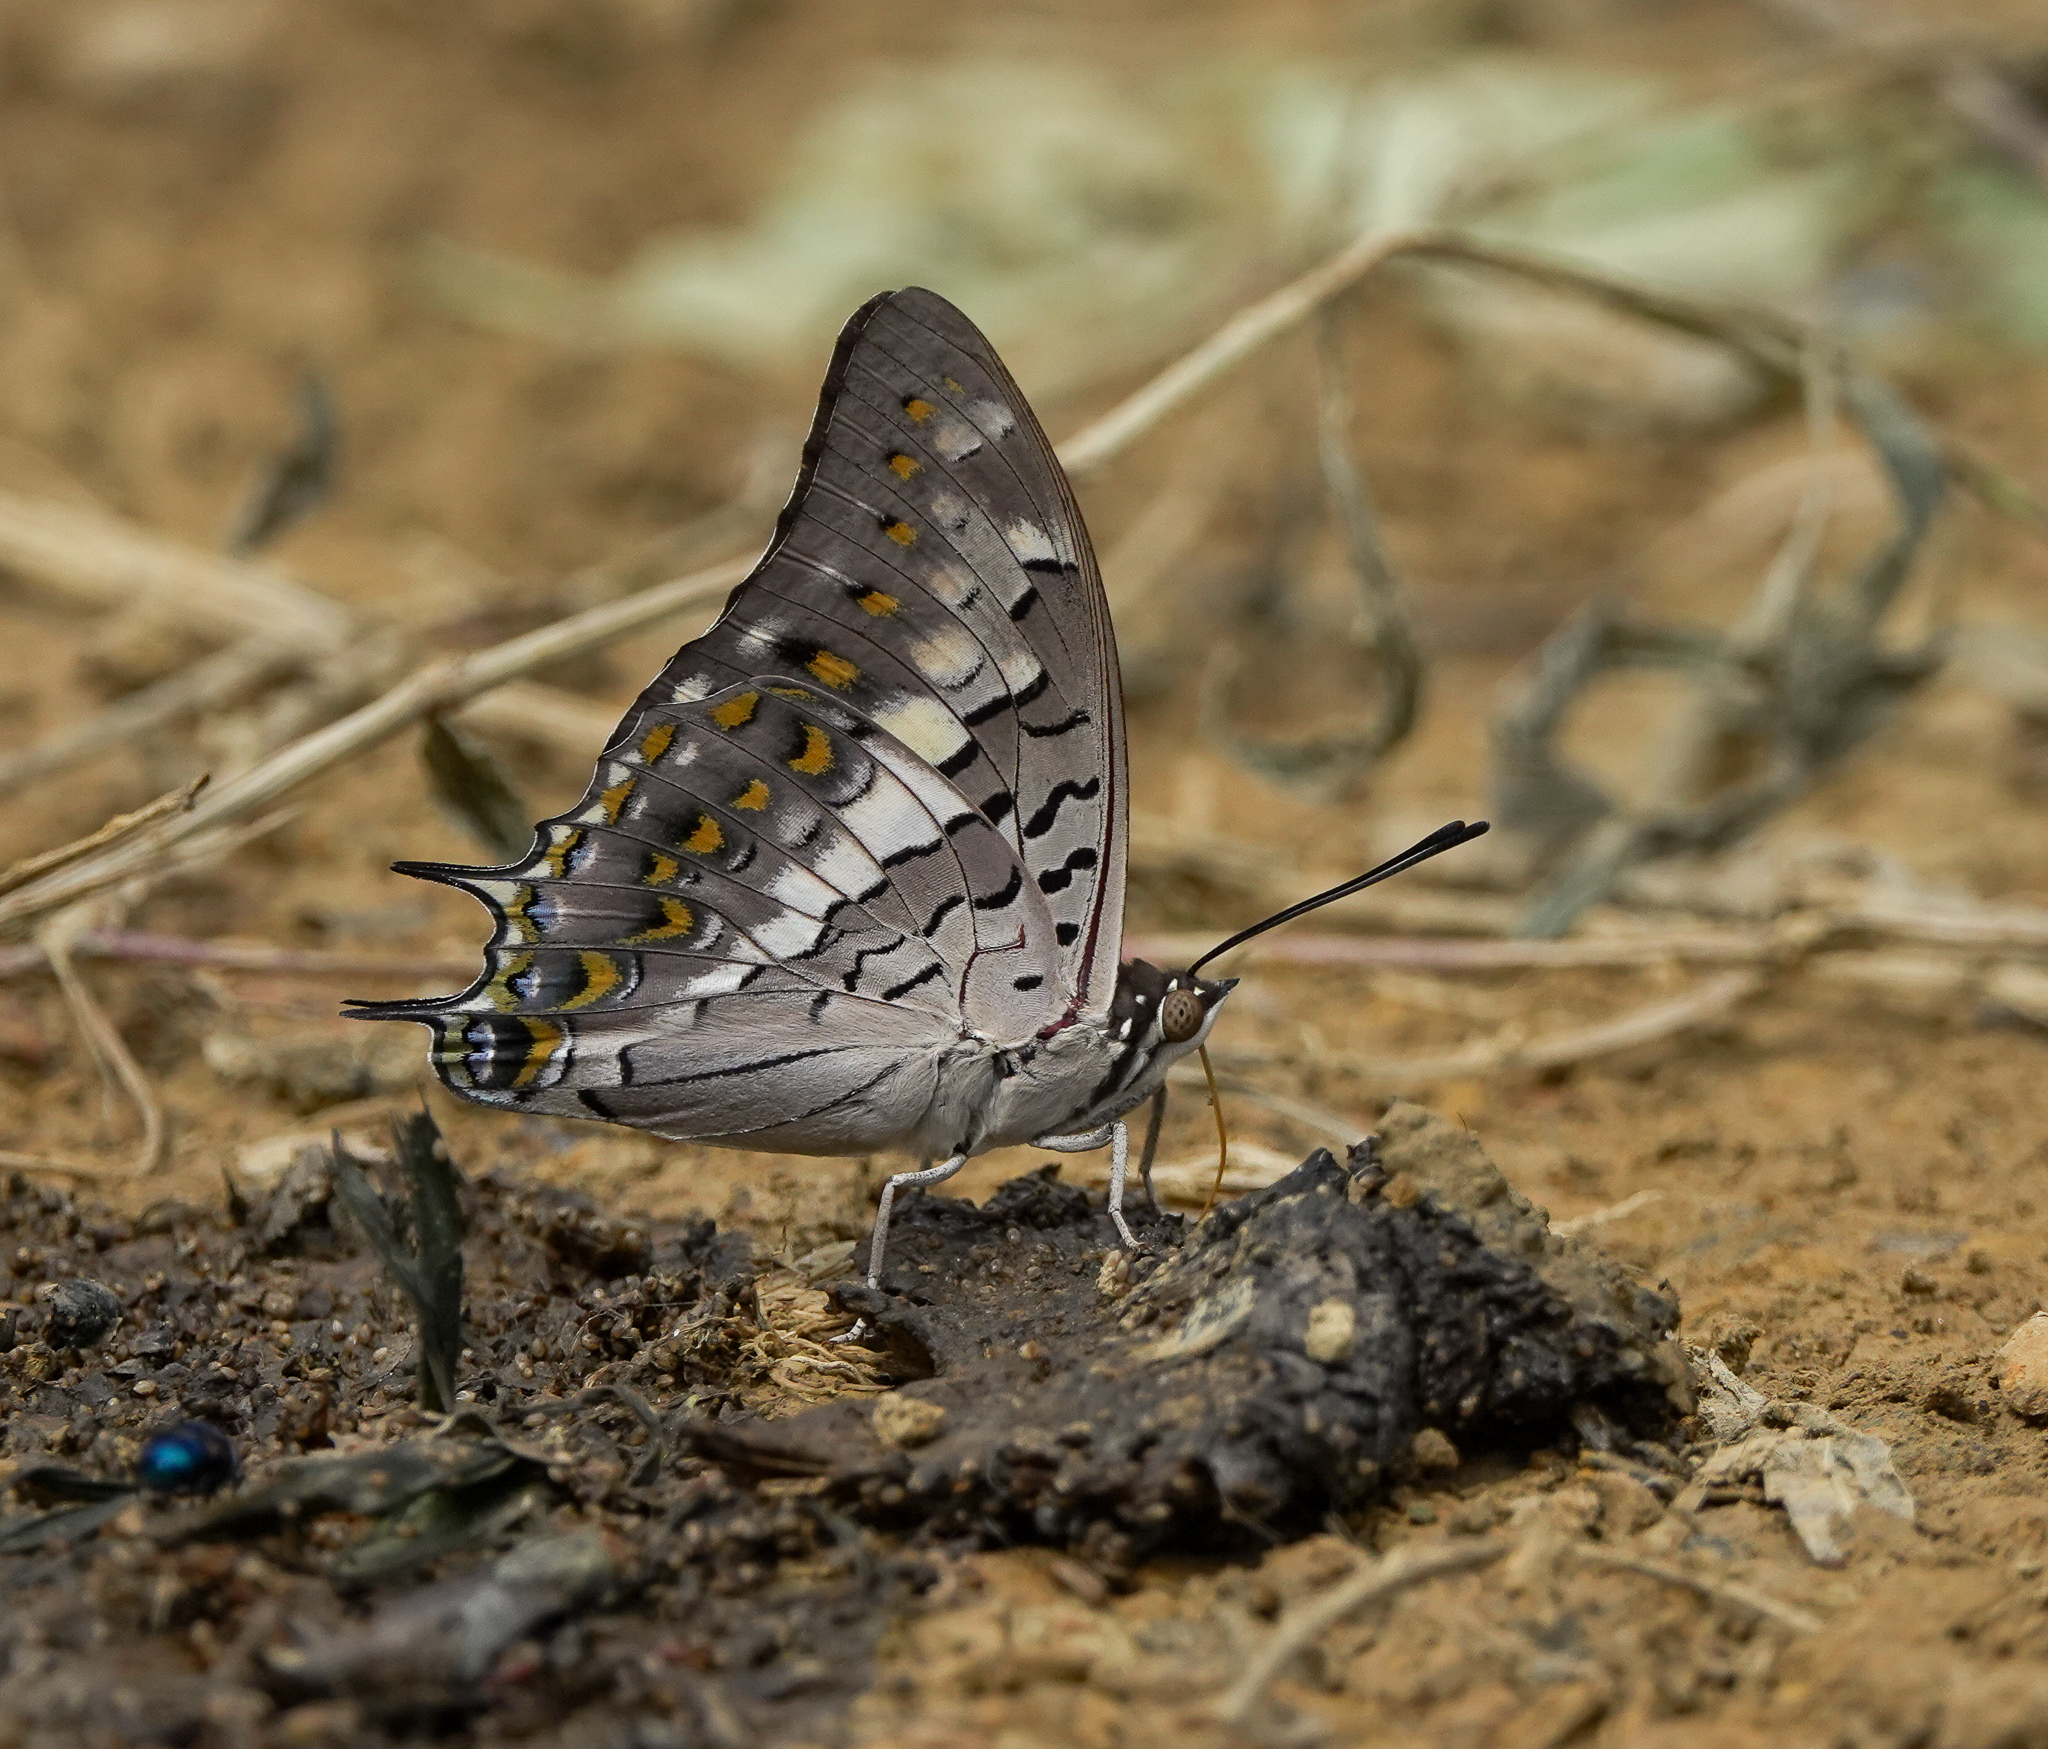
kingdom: Animalia
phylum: Arthropoda
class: Insecta
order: Lepidoptera
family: Nymphalidae
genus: Charaxes
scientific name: Charaxes solon
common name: Black rajah
